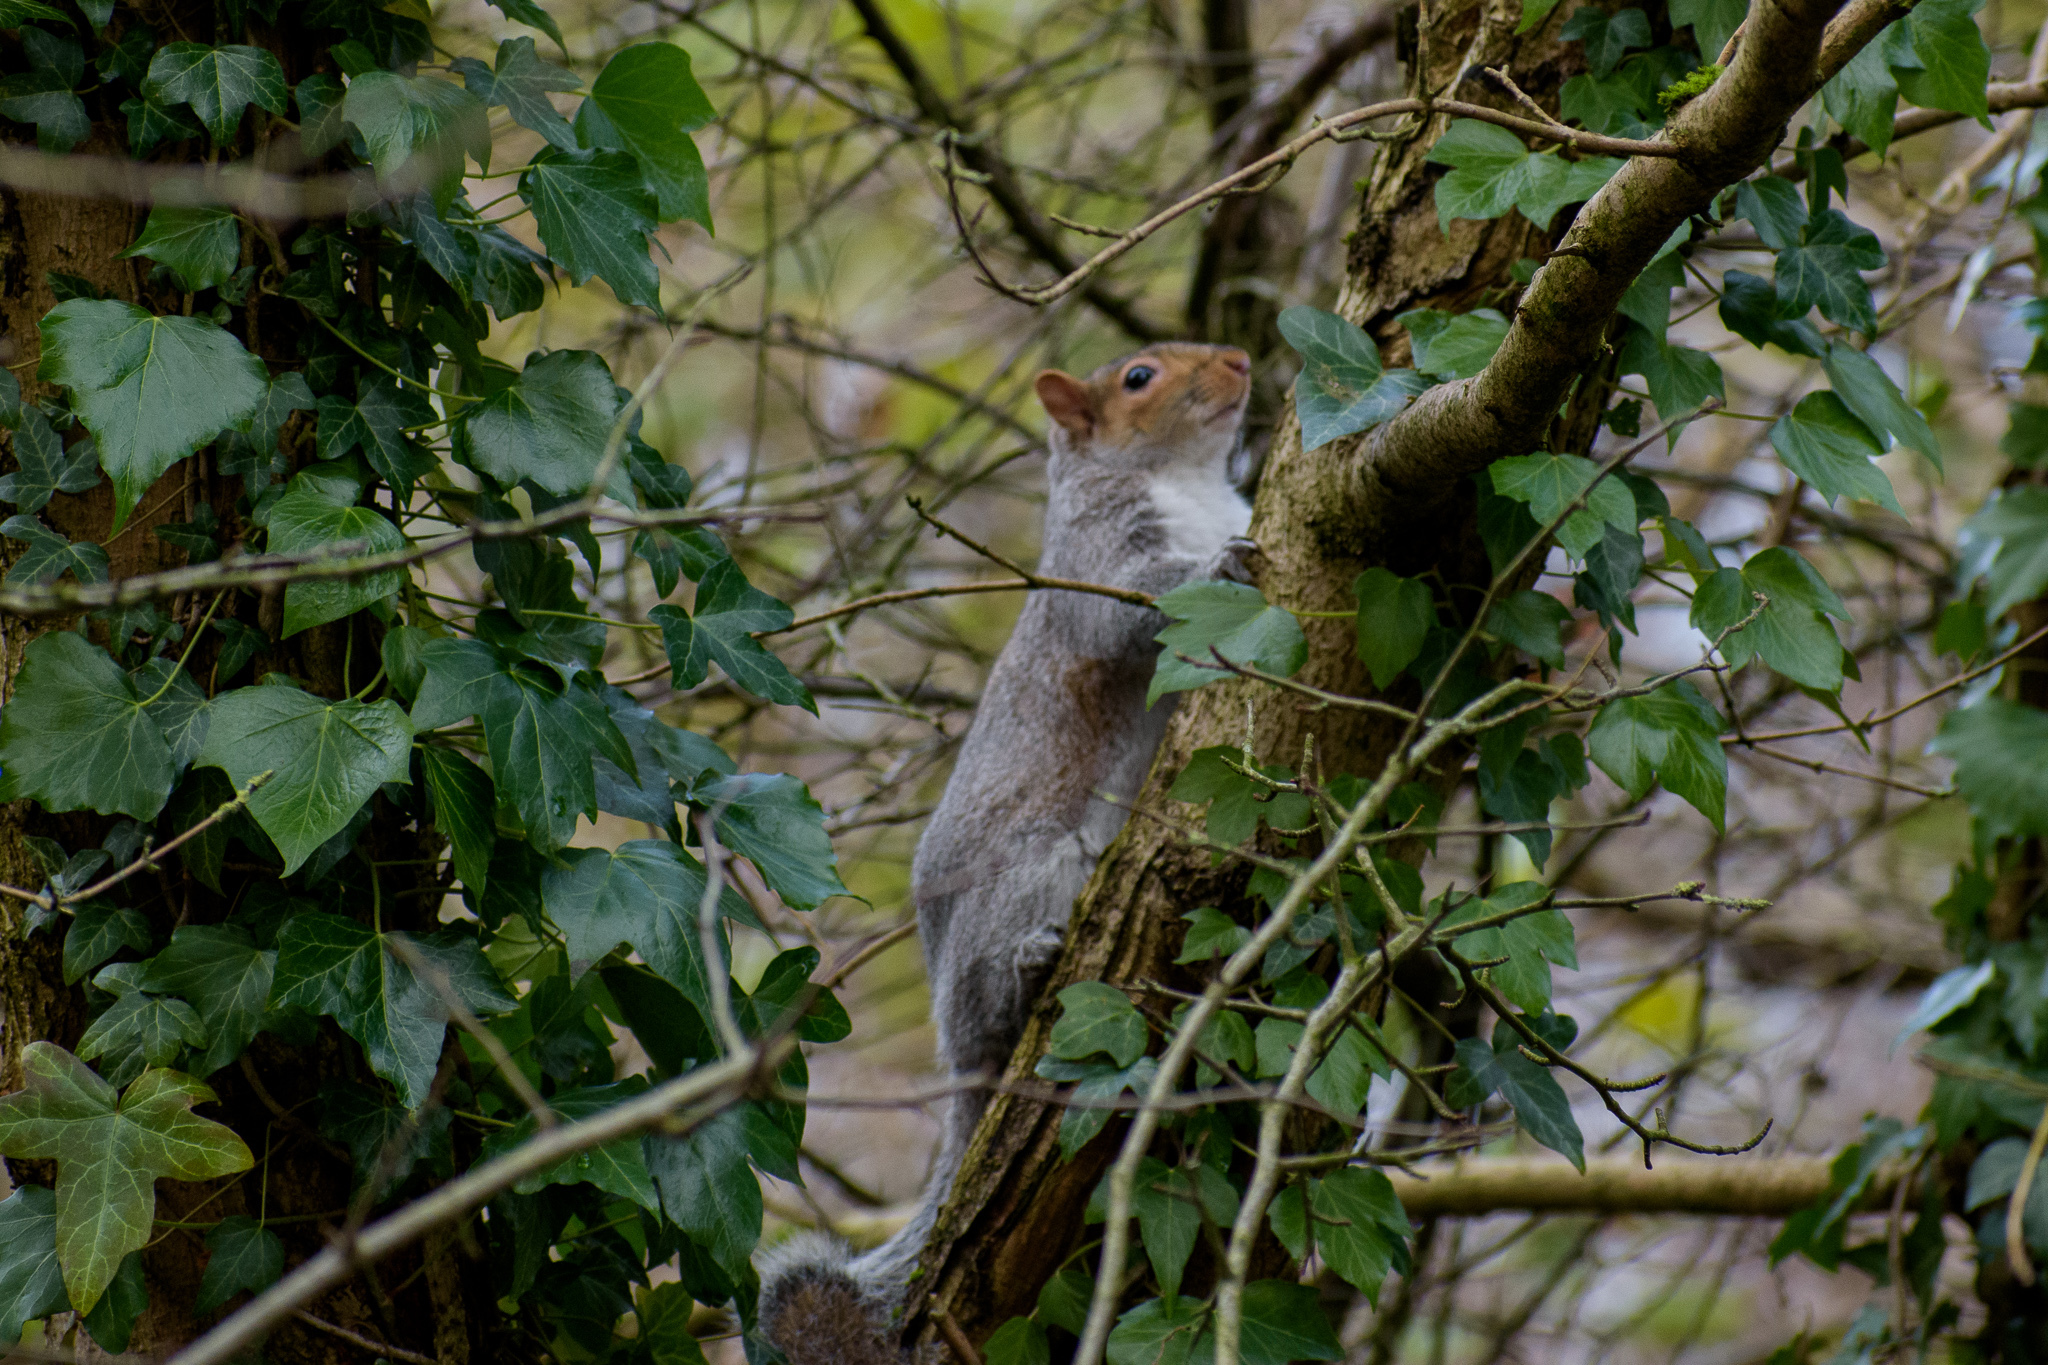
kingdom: Animalia
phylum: Chordata
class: Mammalia
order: Rodentia
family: Sciuridae
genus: Sciurus
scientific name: Sciurus carolinensis
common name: Eastern gray squirrel
